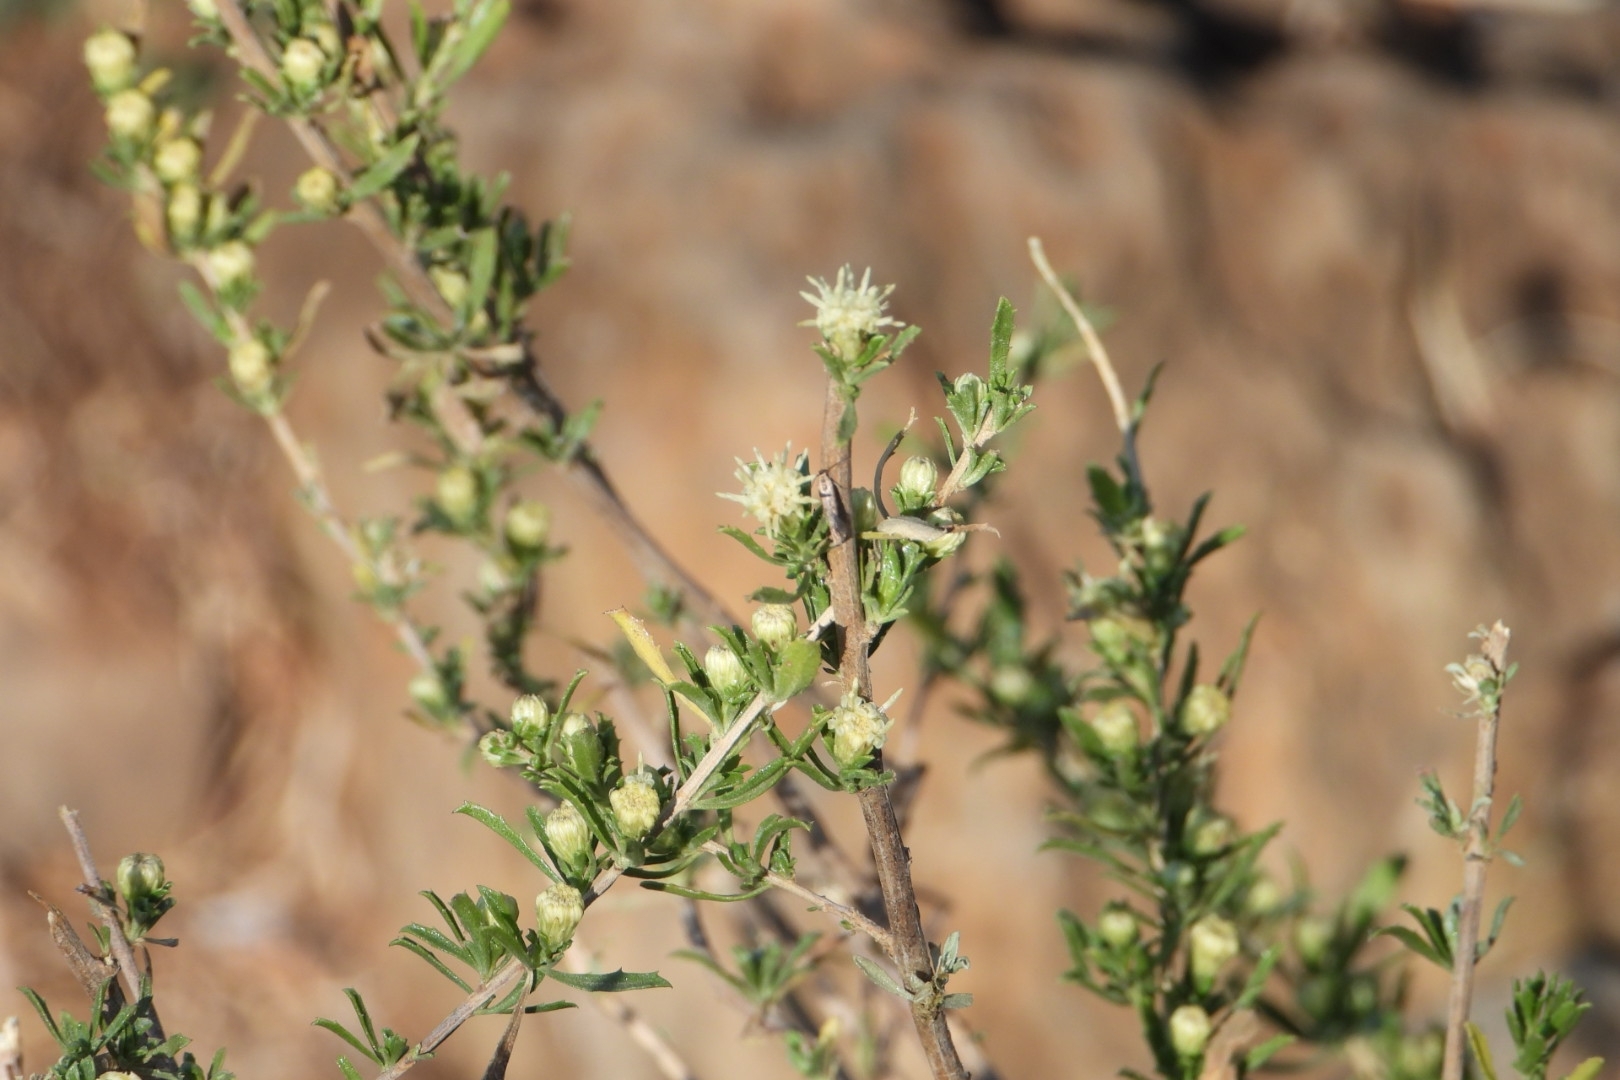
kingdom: Plantae
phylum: Tracheophyta
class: Magnoliopsida
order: Asterales
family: Asteraceae
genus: Baccharis
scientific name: Baccharis pteronioides
